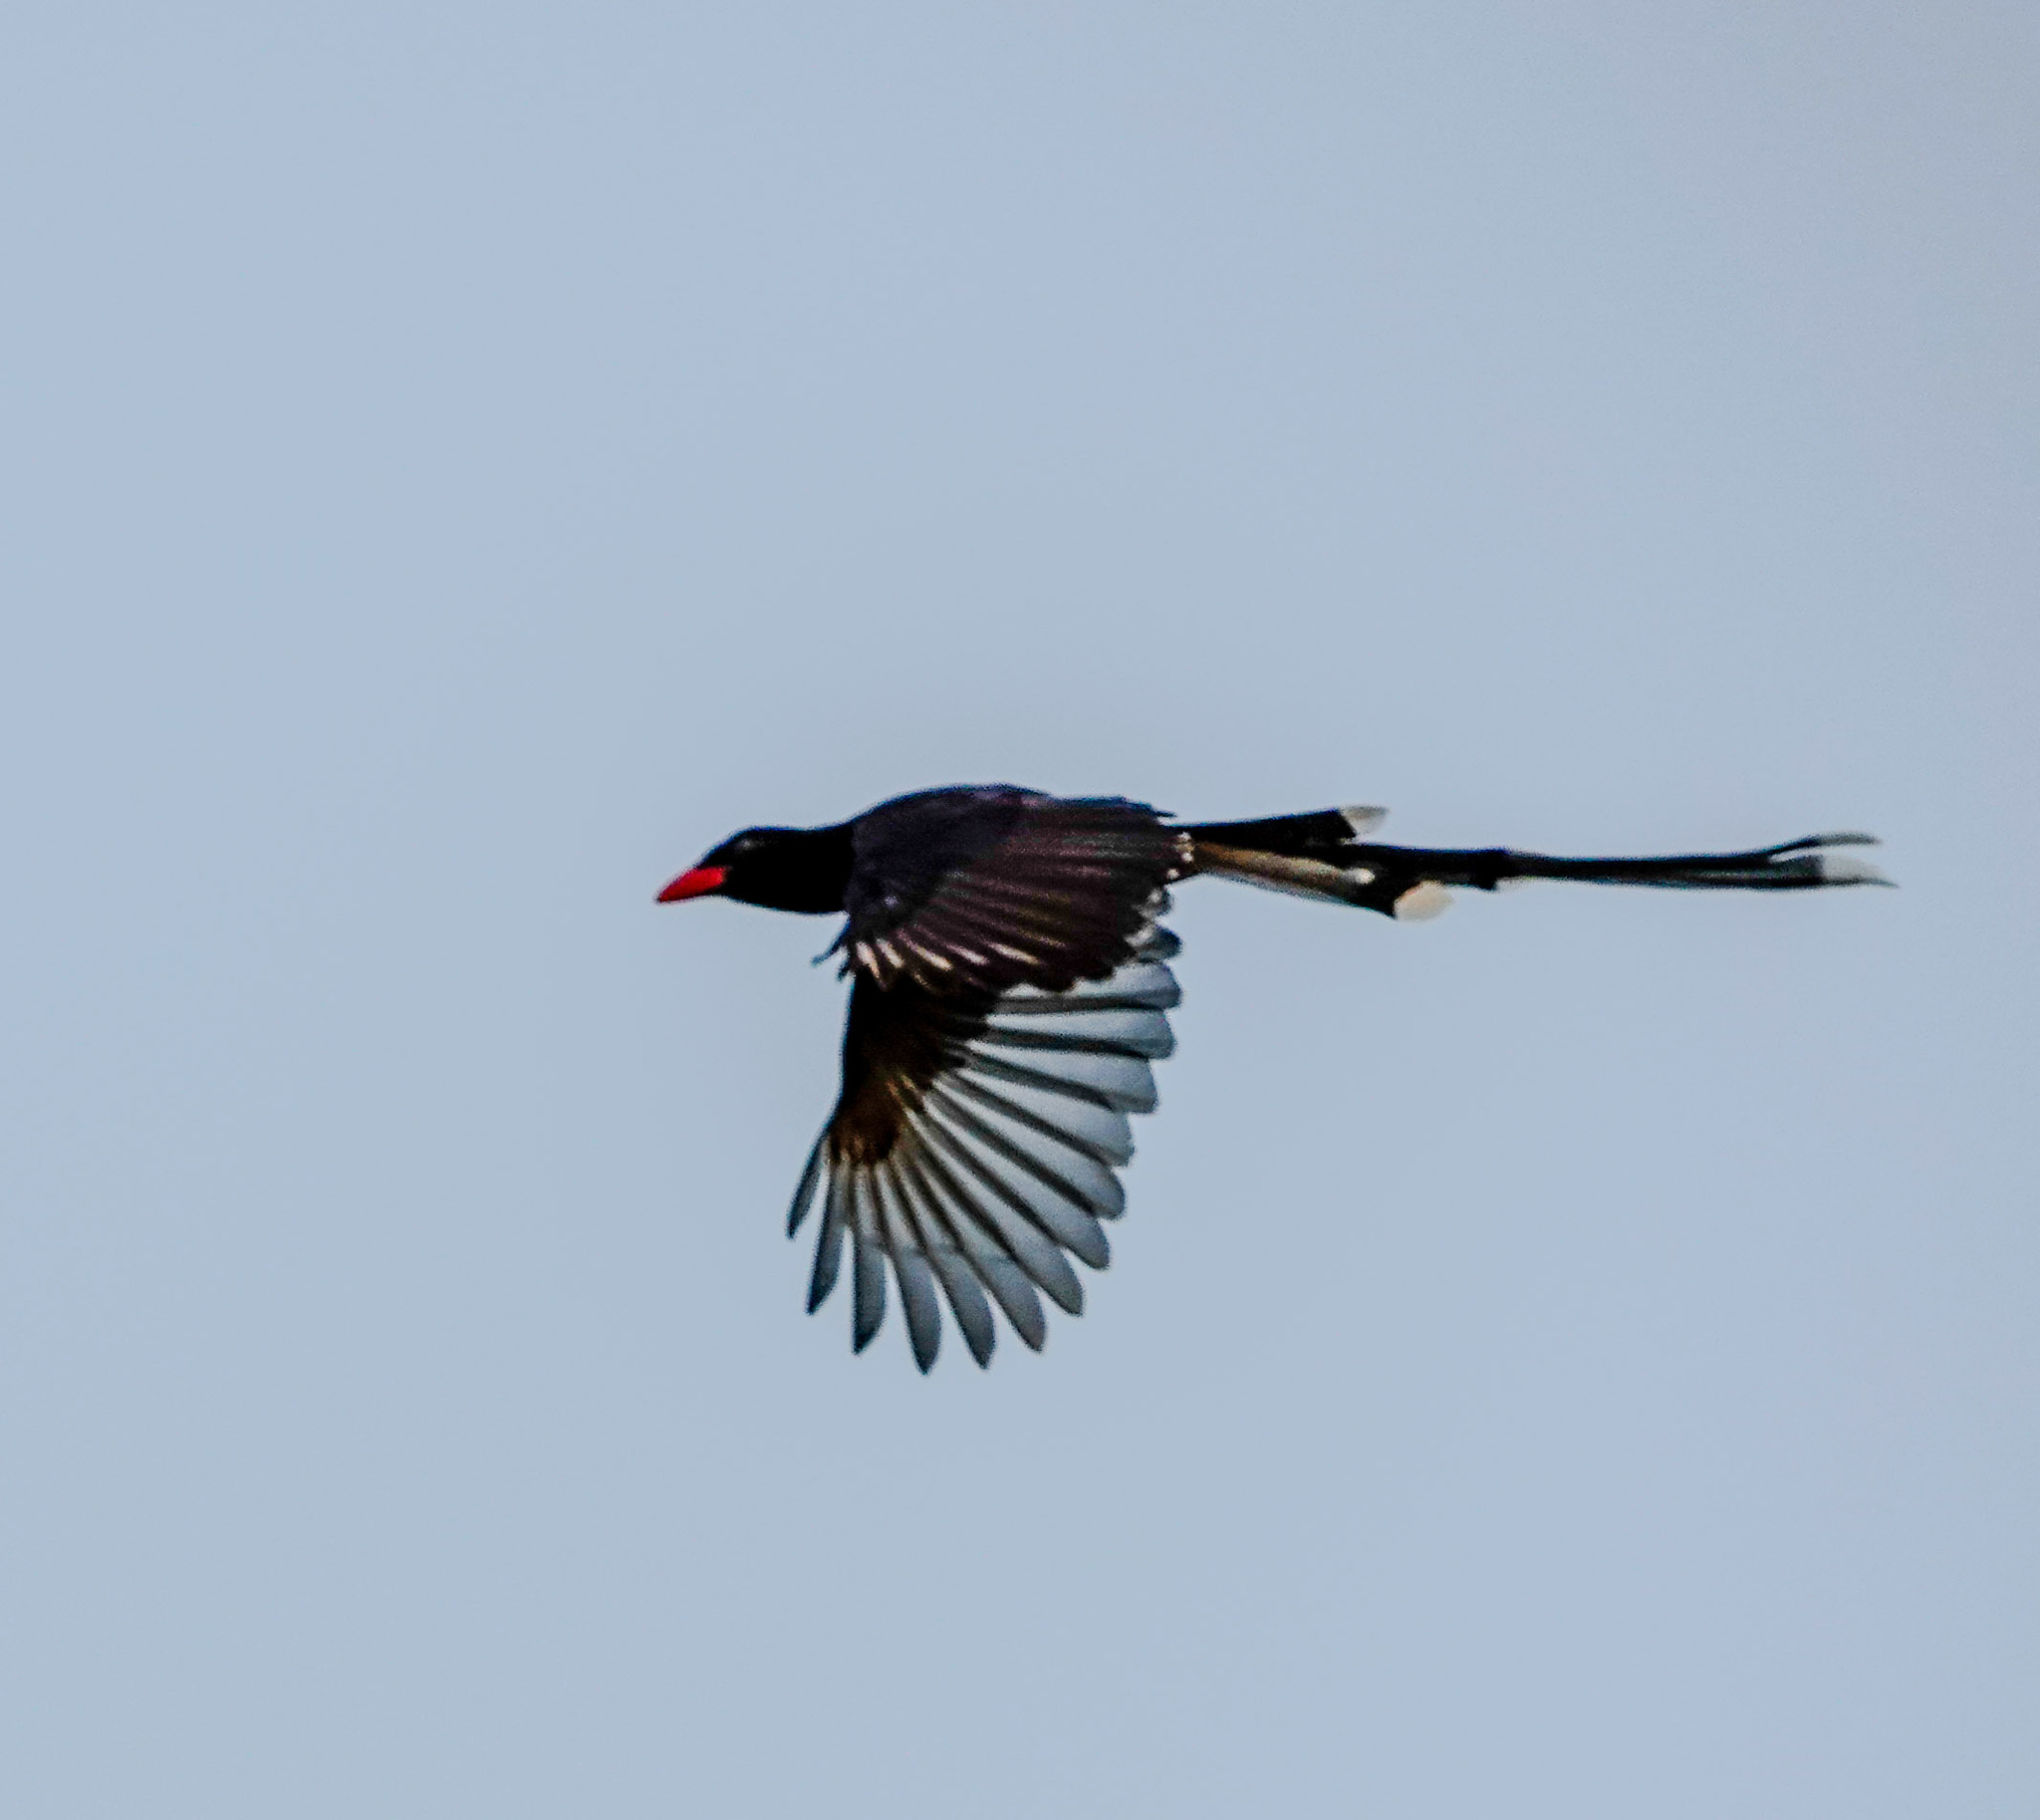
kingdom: Animalia
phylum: Chordata
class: Aves
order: Passeriformes
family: Corvidae
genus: Urocissa
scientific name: Urocissa erythroryncha
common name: Red-billed blue magpie
